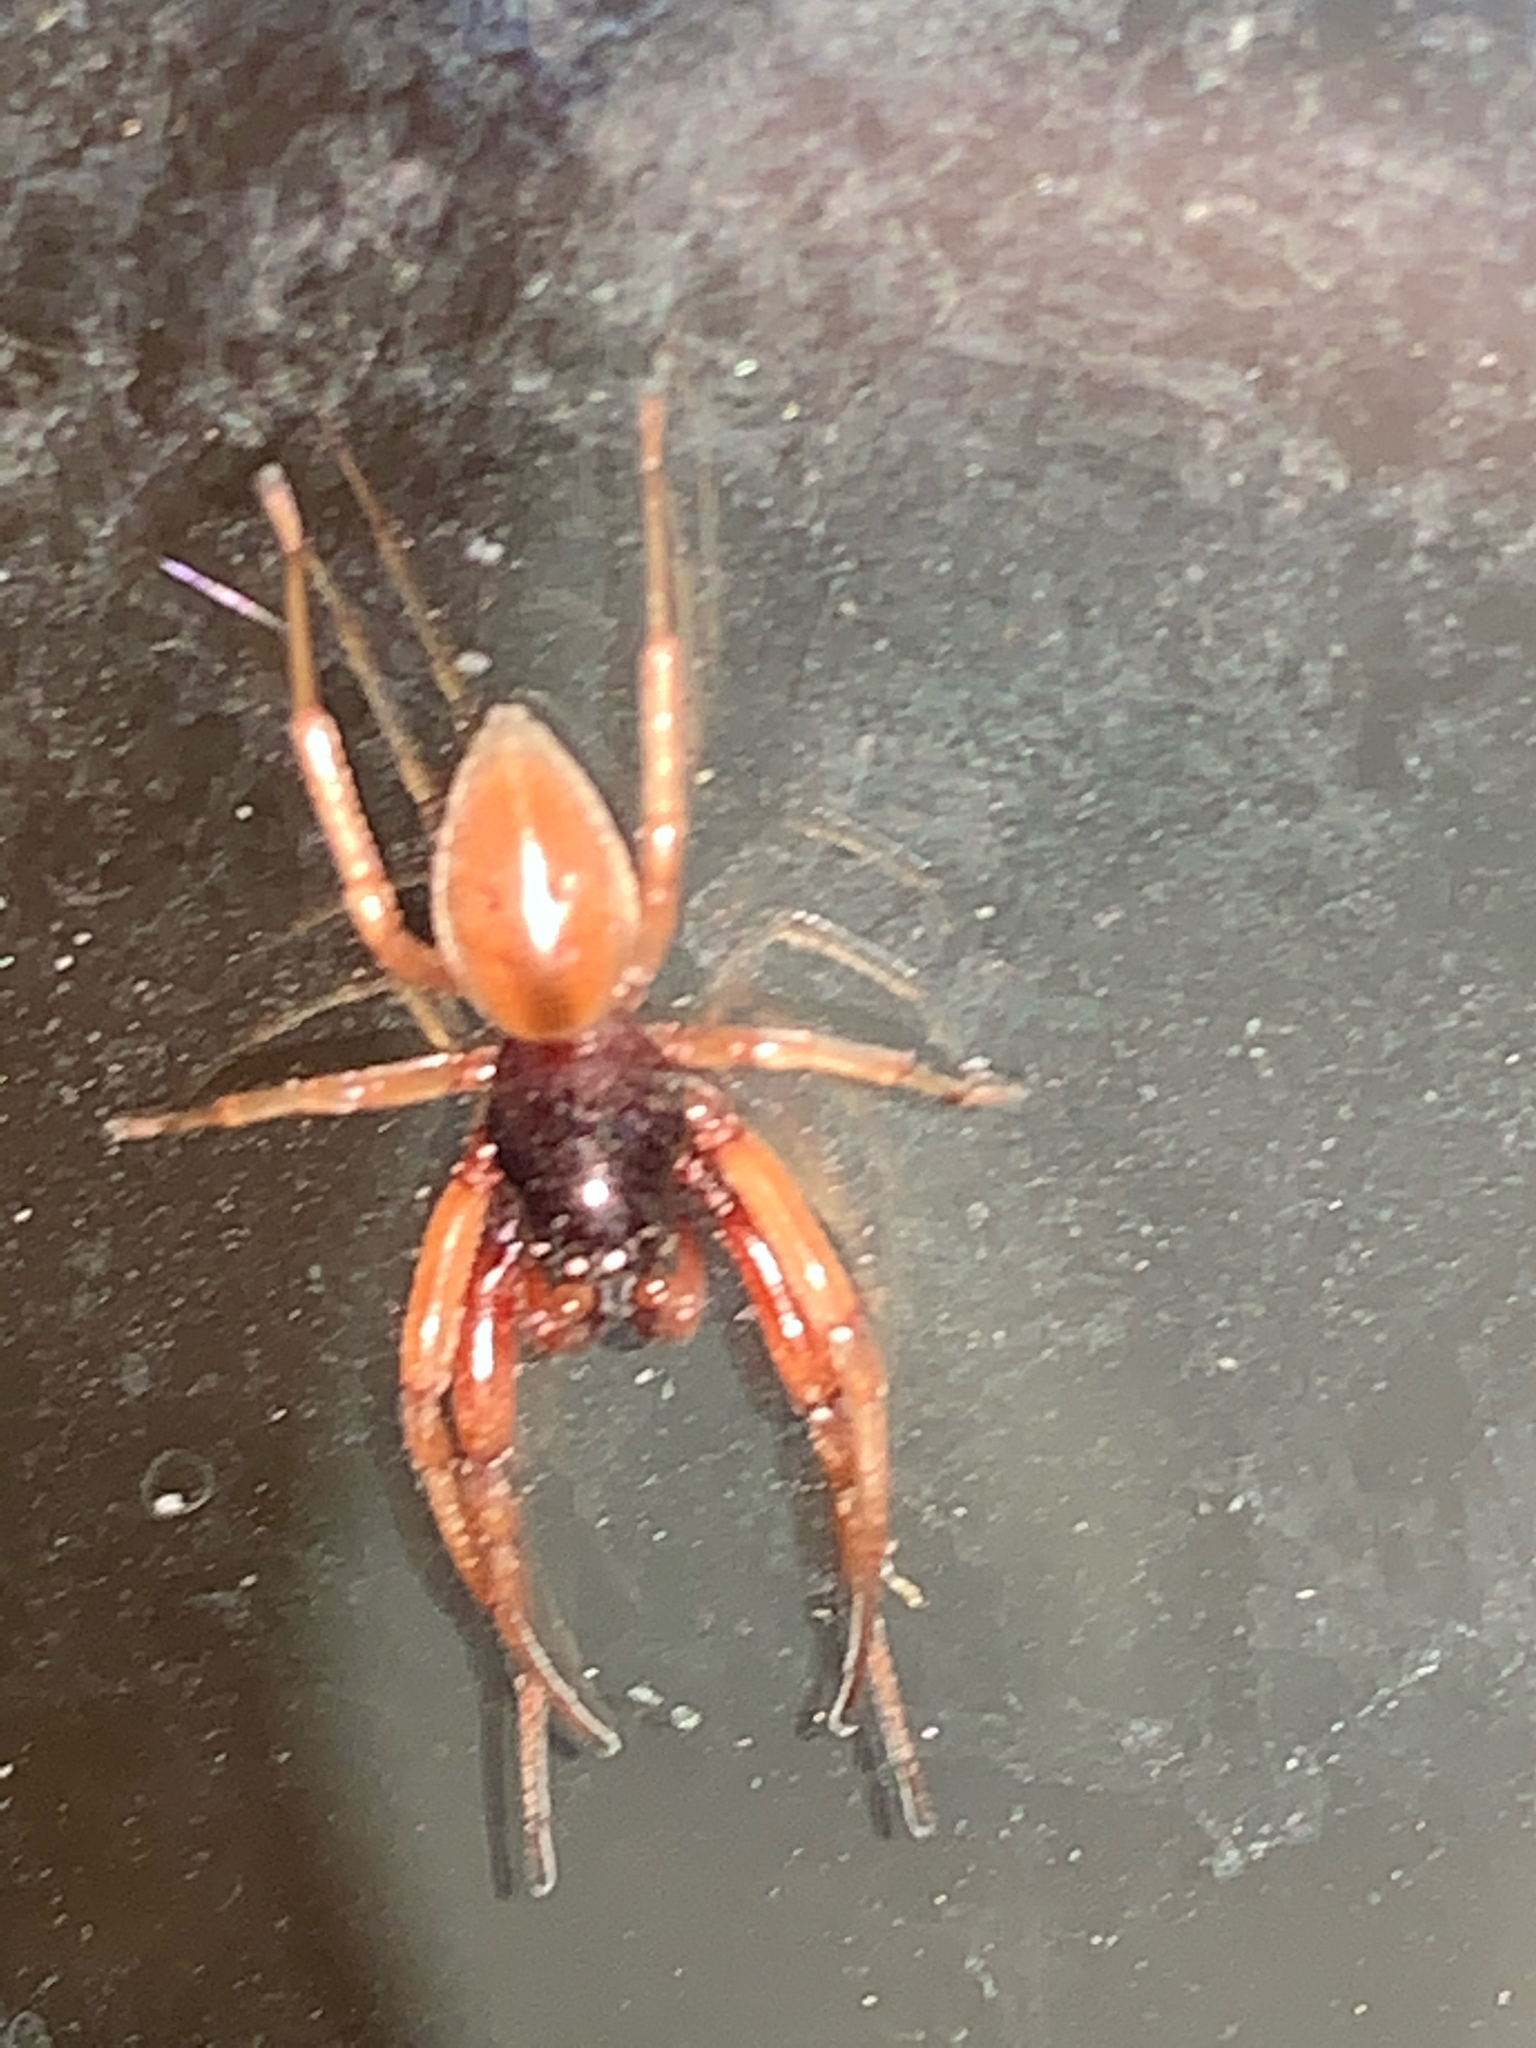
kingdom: Animalia
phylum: Arthropoda
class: Arachnida
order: Araneae
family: Trachelidae
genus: Trachelas
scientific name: Trachelas tranquillus
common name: Broad-faced sac spider
